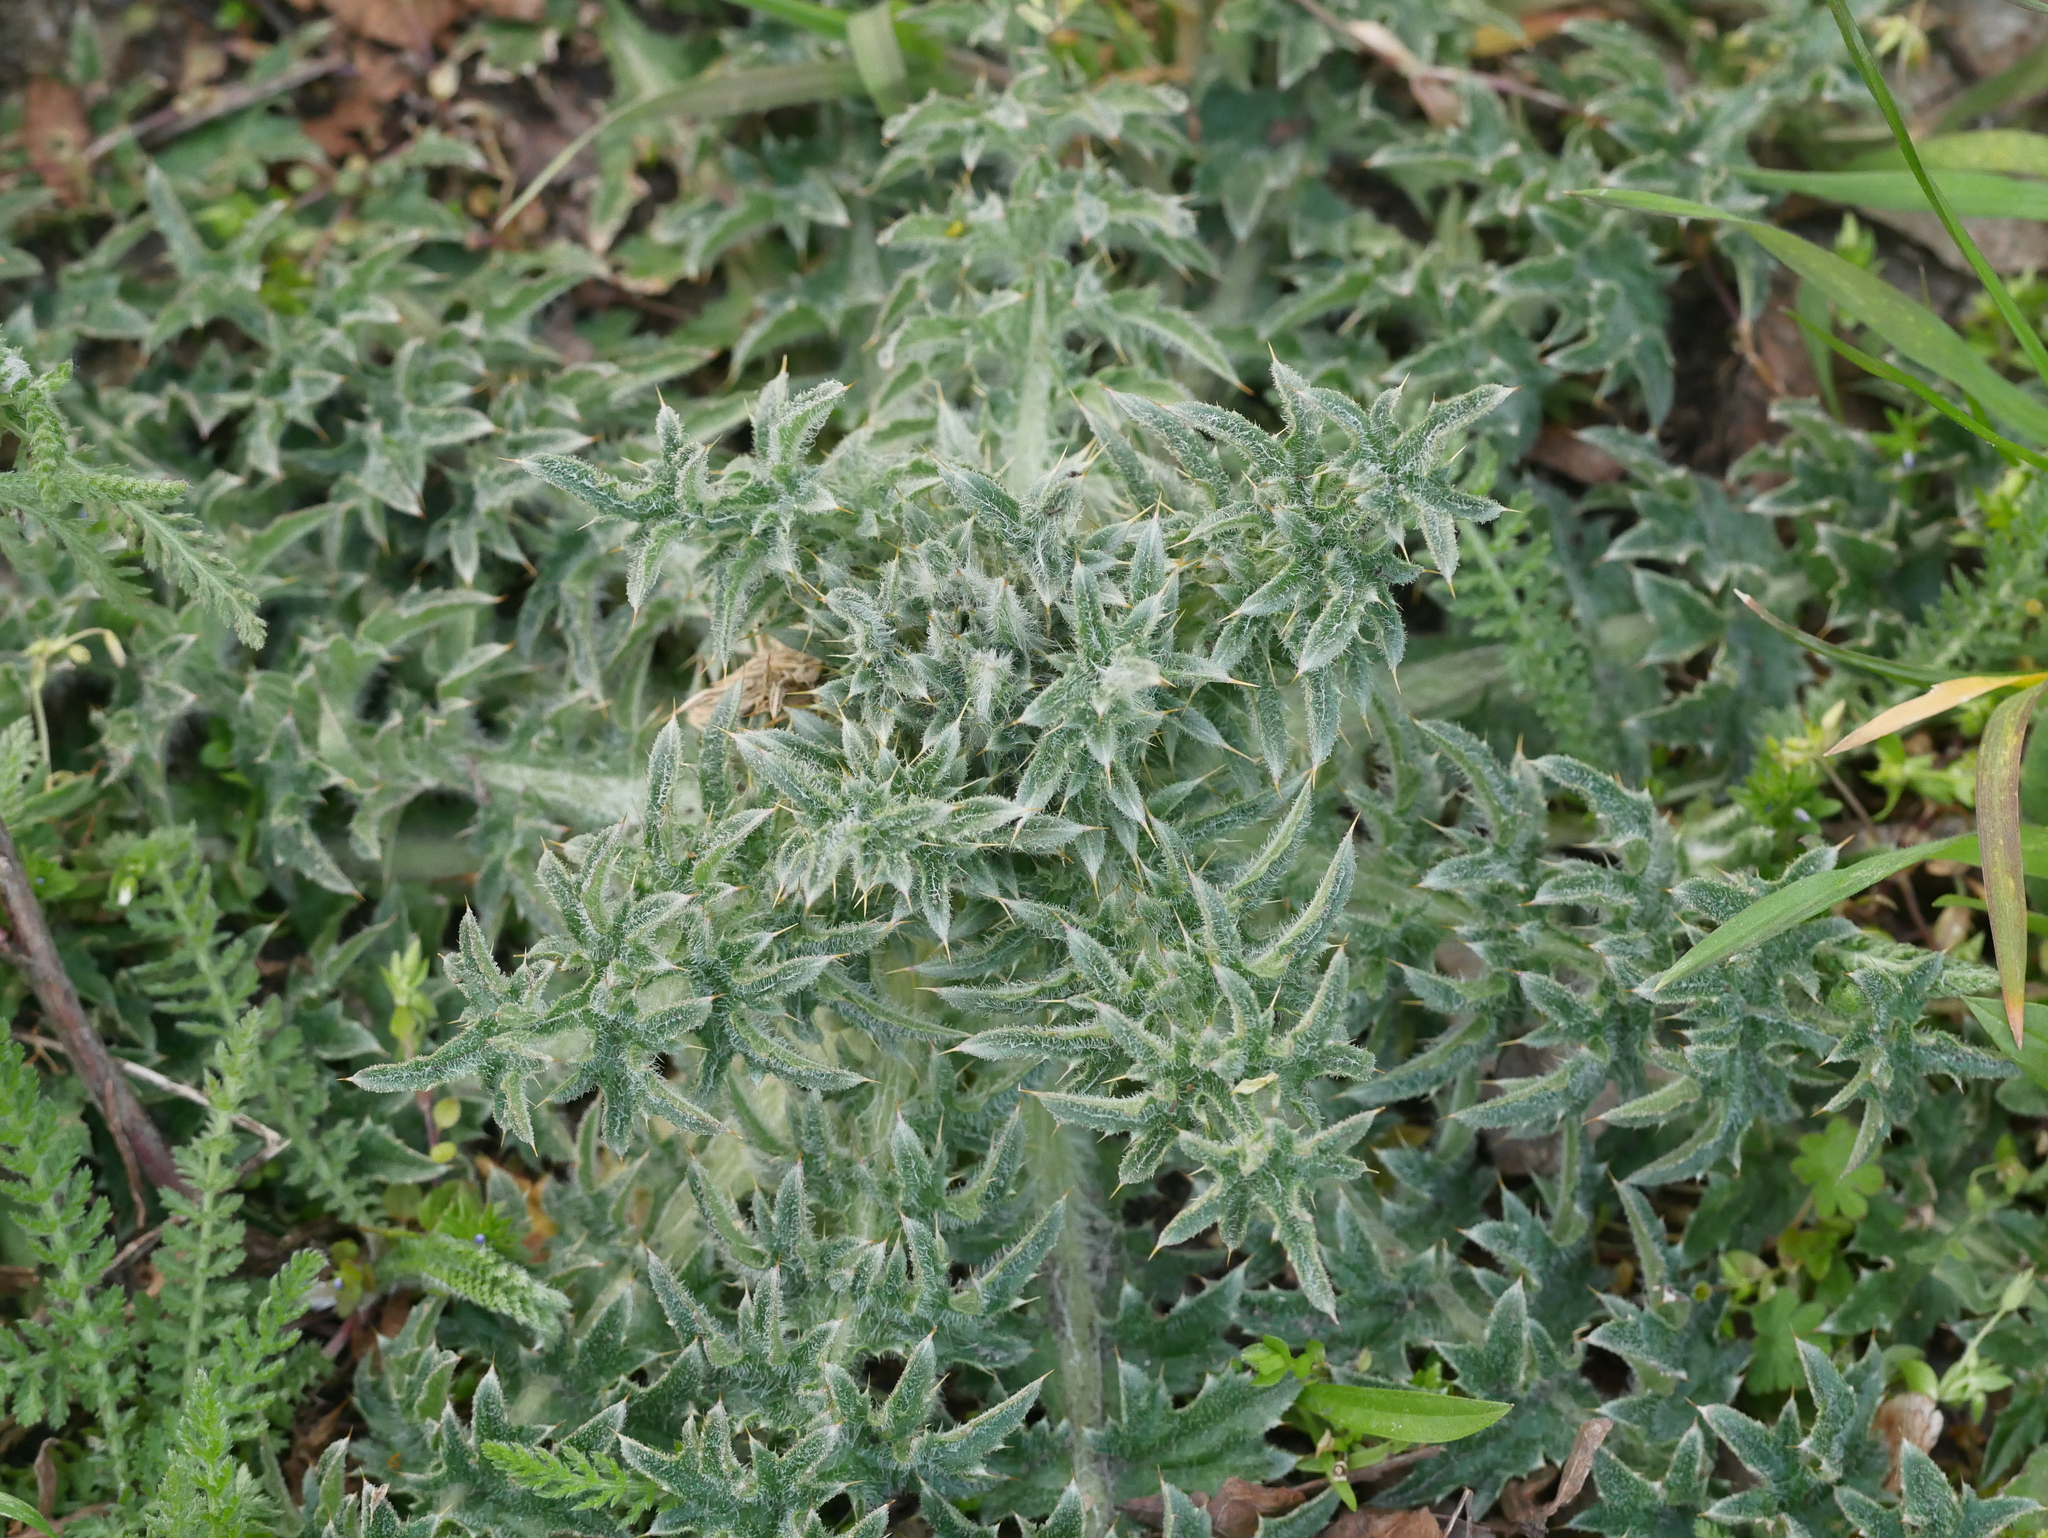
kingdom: Plantae
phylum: Tracheophyta
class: Magnoliopsida
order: Asterales
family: Asteraceae
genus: Cirsium
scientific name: Cirsium vulgare
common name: Bull thistle
